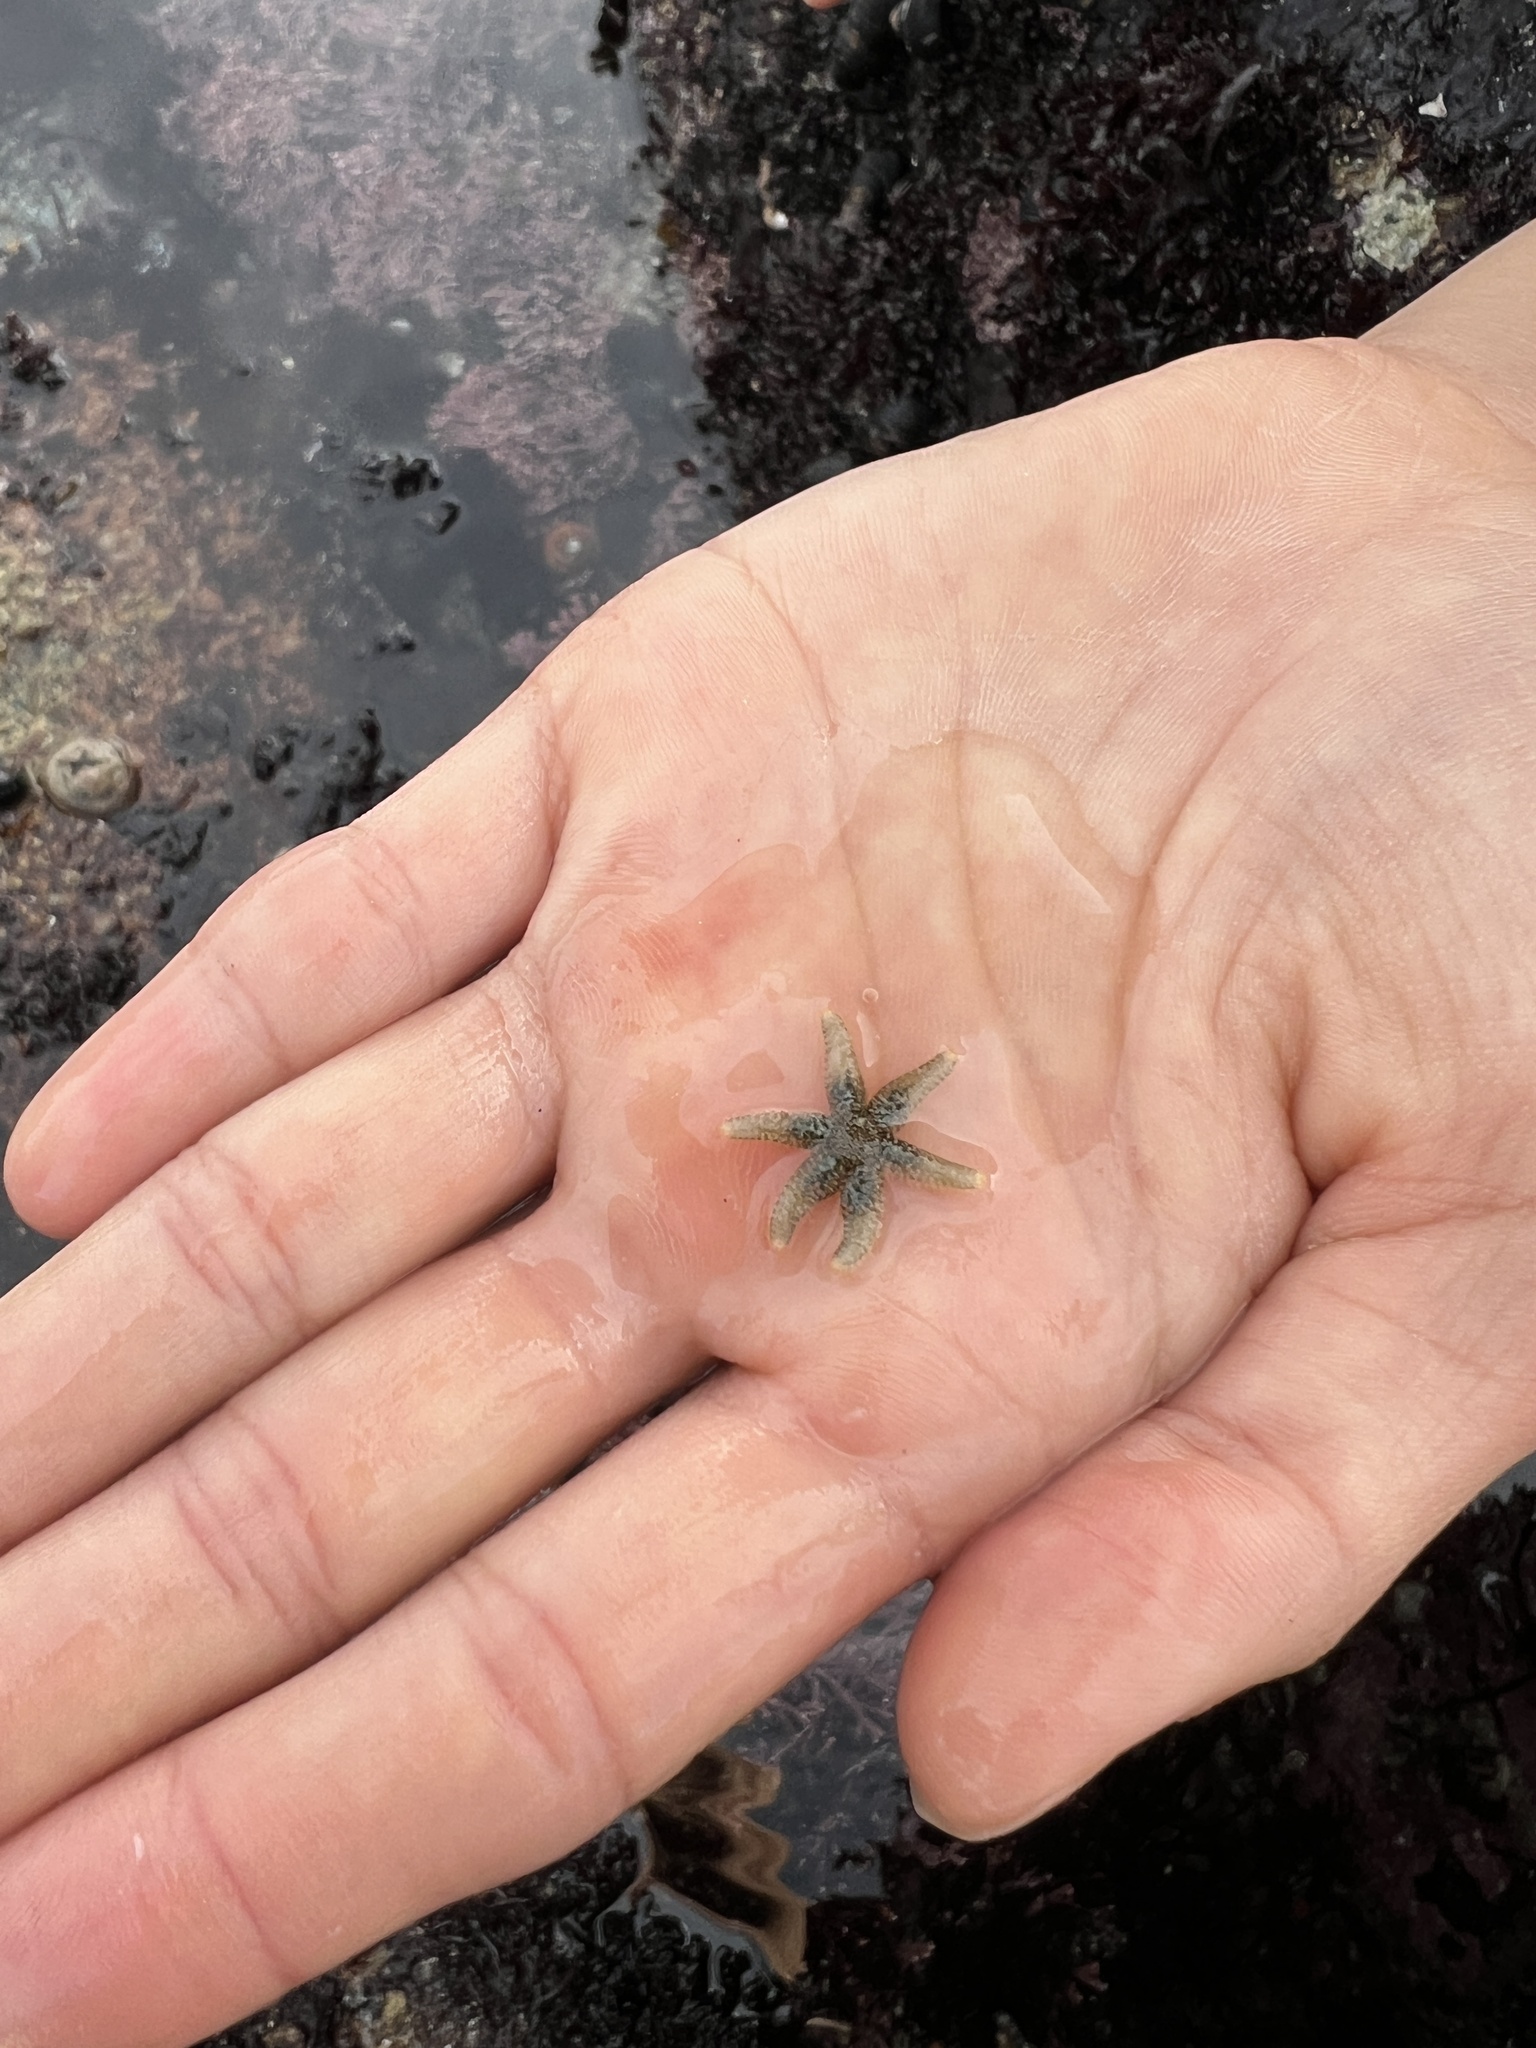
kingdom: Animalia
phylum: Echinodermata
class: Asteroidea
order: Forcipulatida
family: Asteriidae
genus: Leptasterias
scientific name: Leptasterias hexactis
